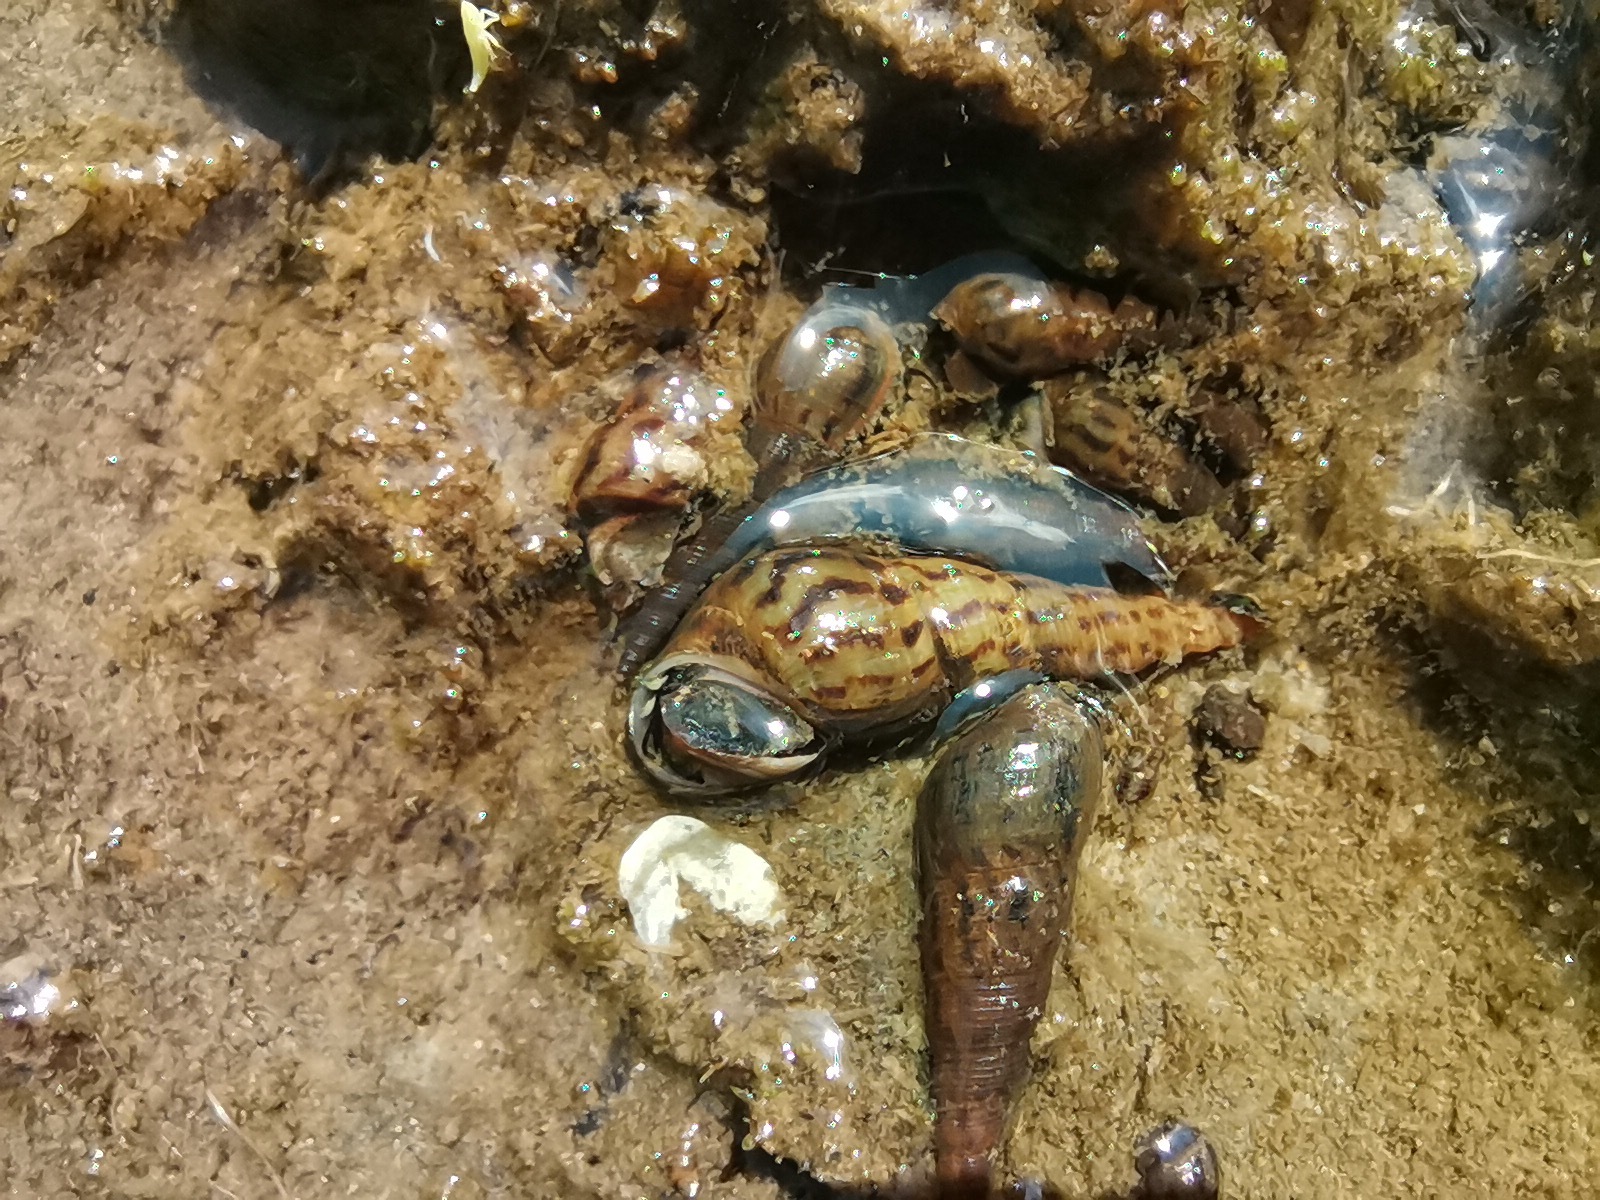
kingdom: Animalia
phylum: Mollusca
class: Gastropoda
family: Thiaridae
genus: Melanoides
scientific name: Melanoides tuberculata
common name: Red-rim melania
